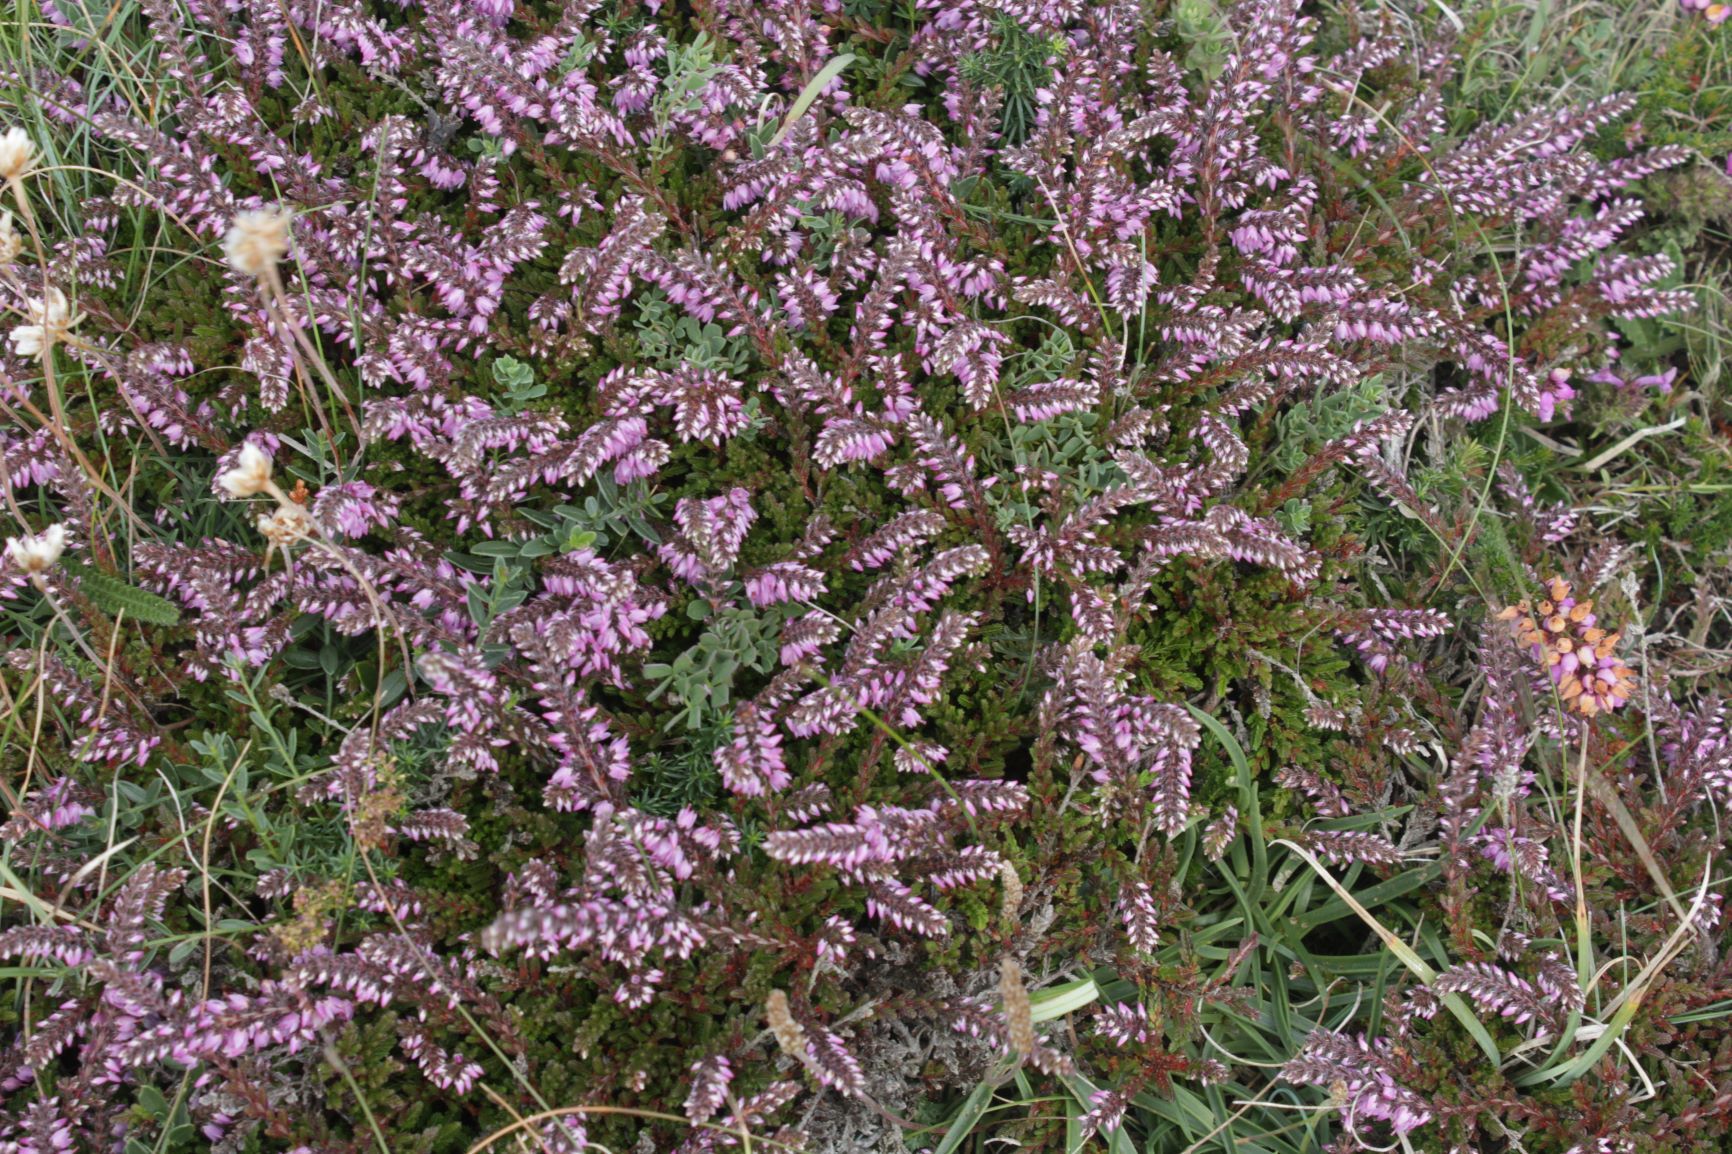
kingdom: Plantae
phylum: Tracheophyta
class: Magnoliopsida
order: Ericales
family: Ericaceae
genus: Calluna
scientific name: Calluna vulgaris
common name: Heather
